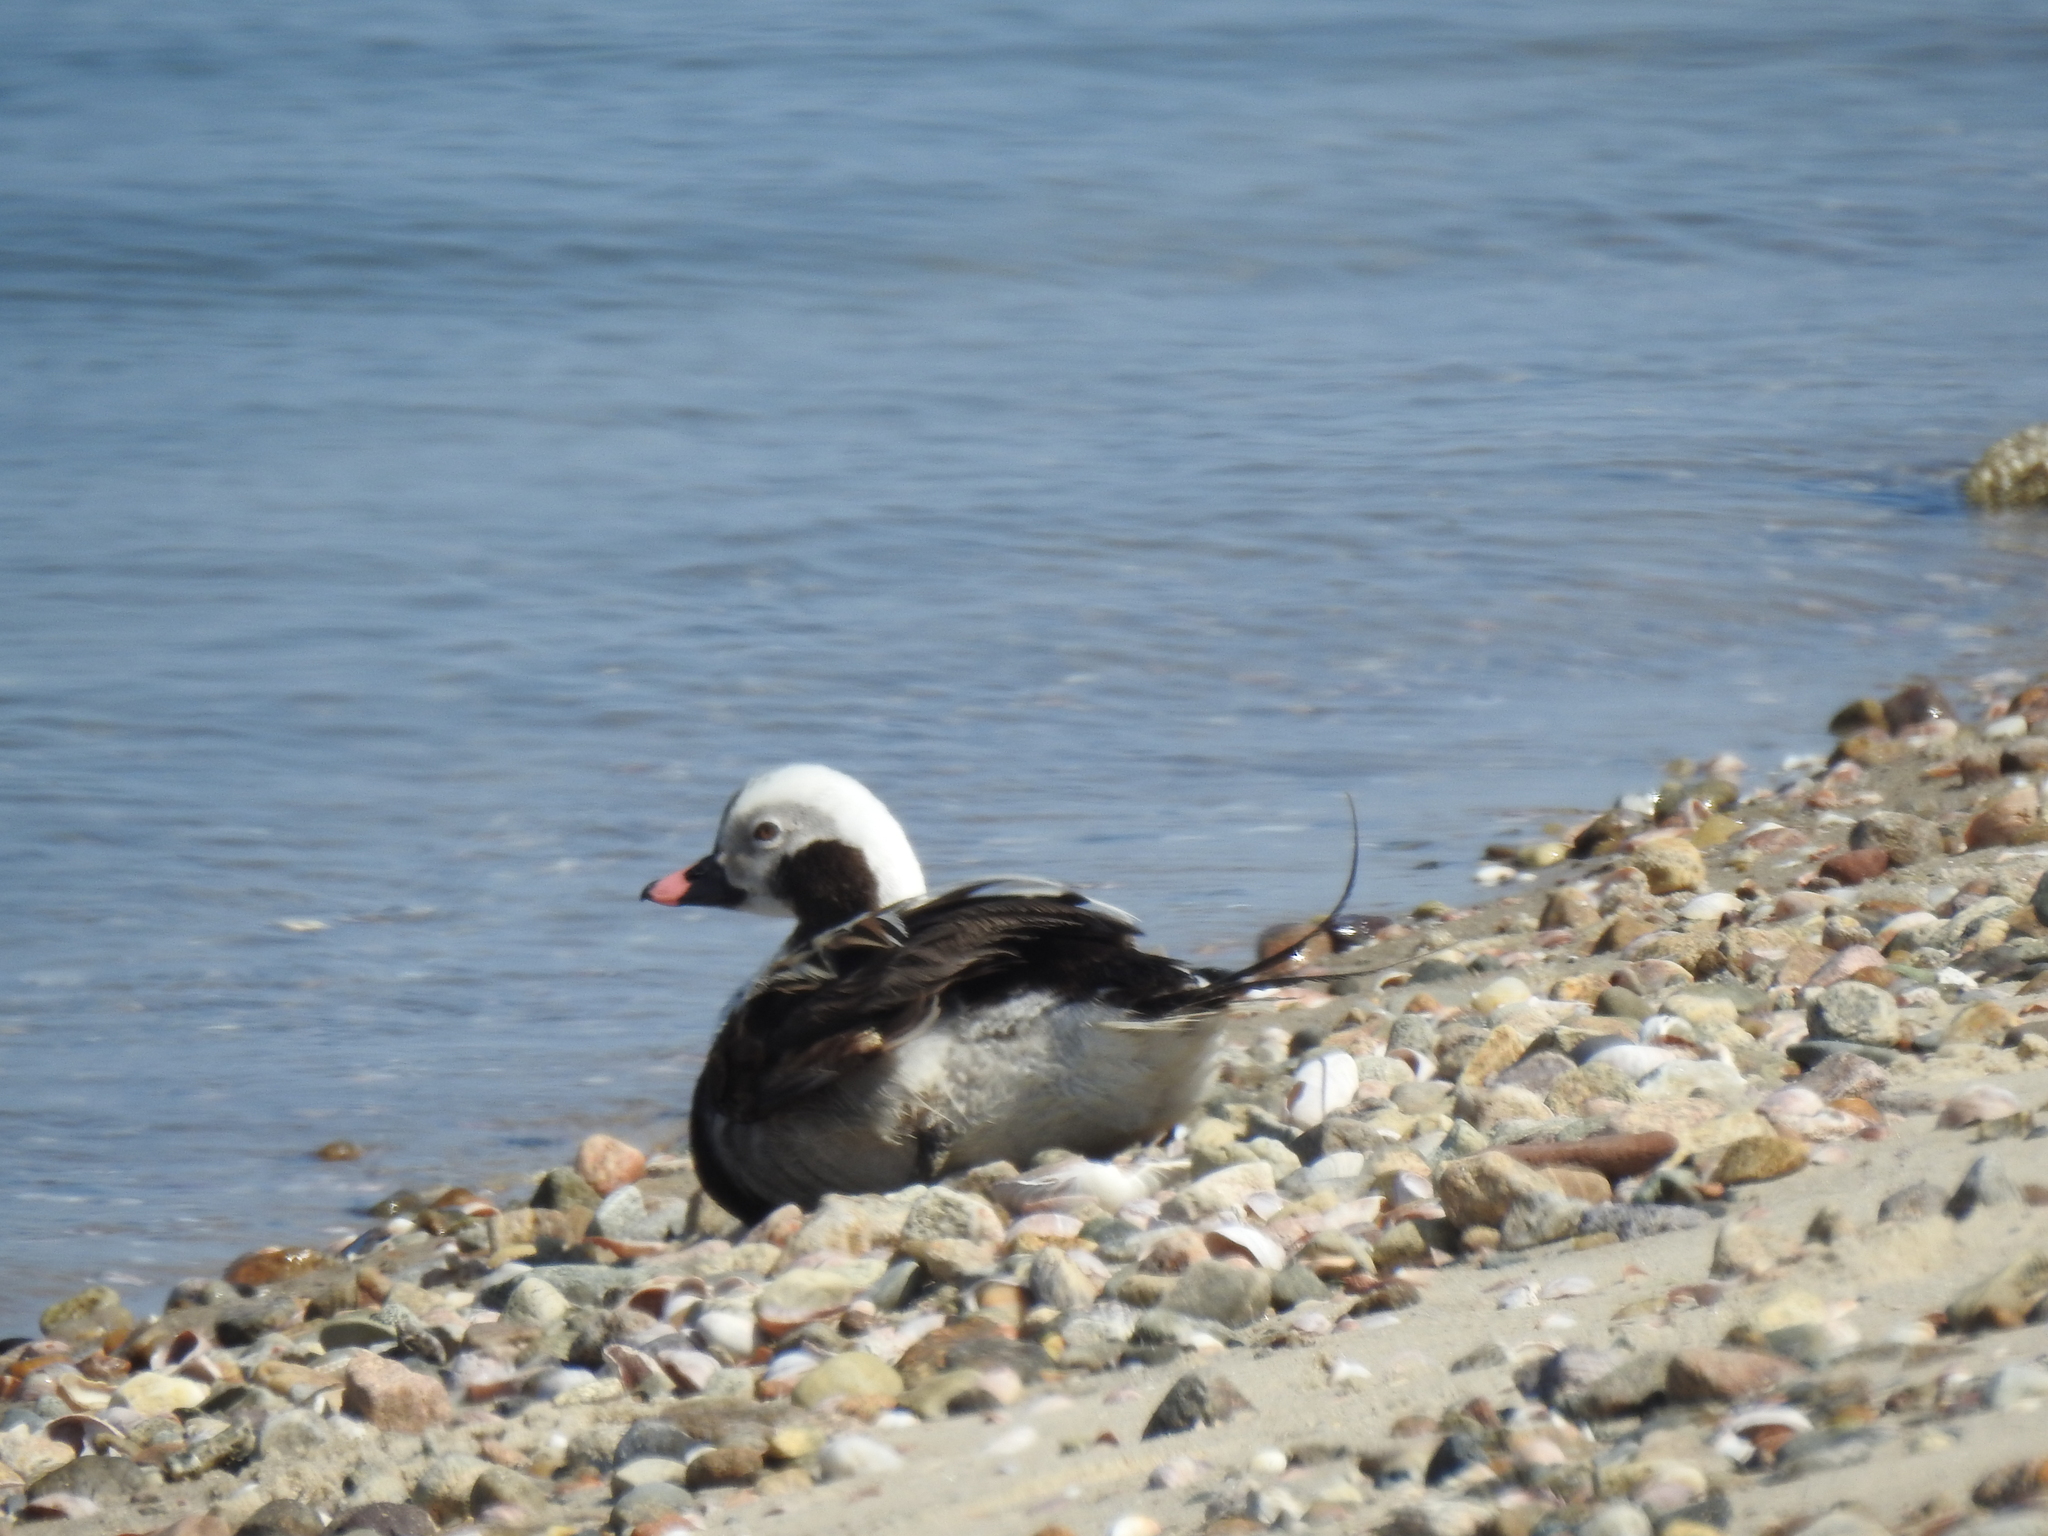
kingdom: Animalia
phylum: Chordata
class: Aves
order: Anseriformes
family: Anatidae
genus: Clangula
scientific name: Clangula hyemalis
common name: Long-tailed duck
